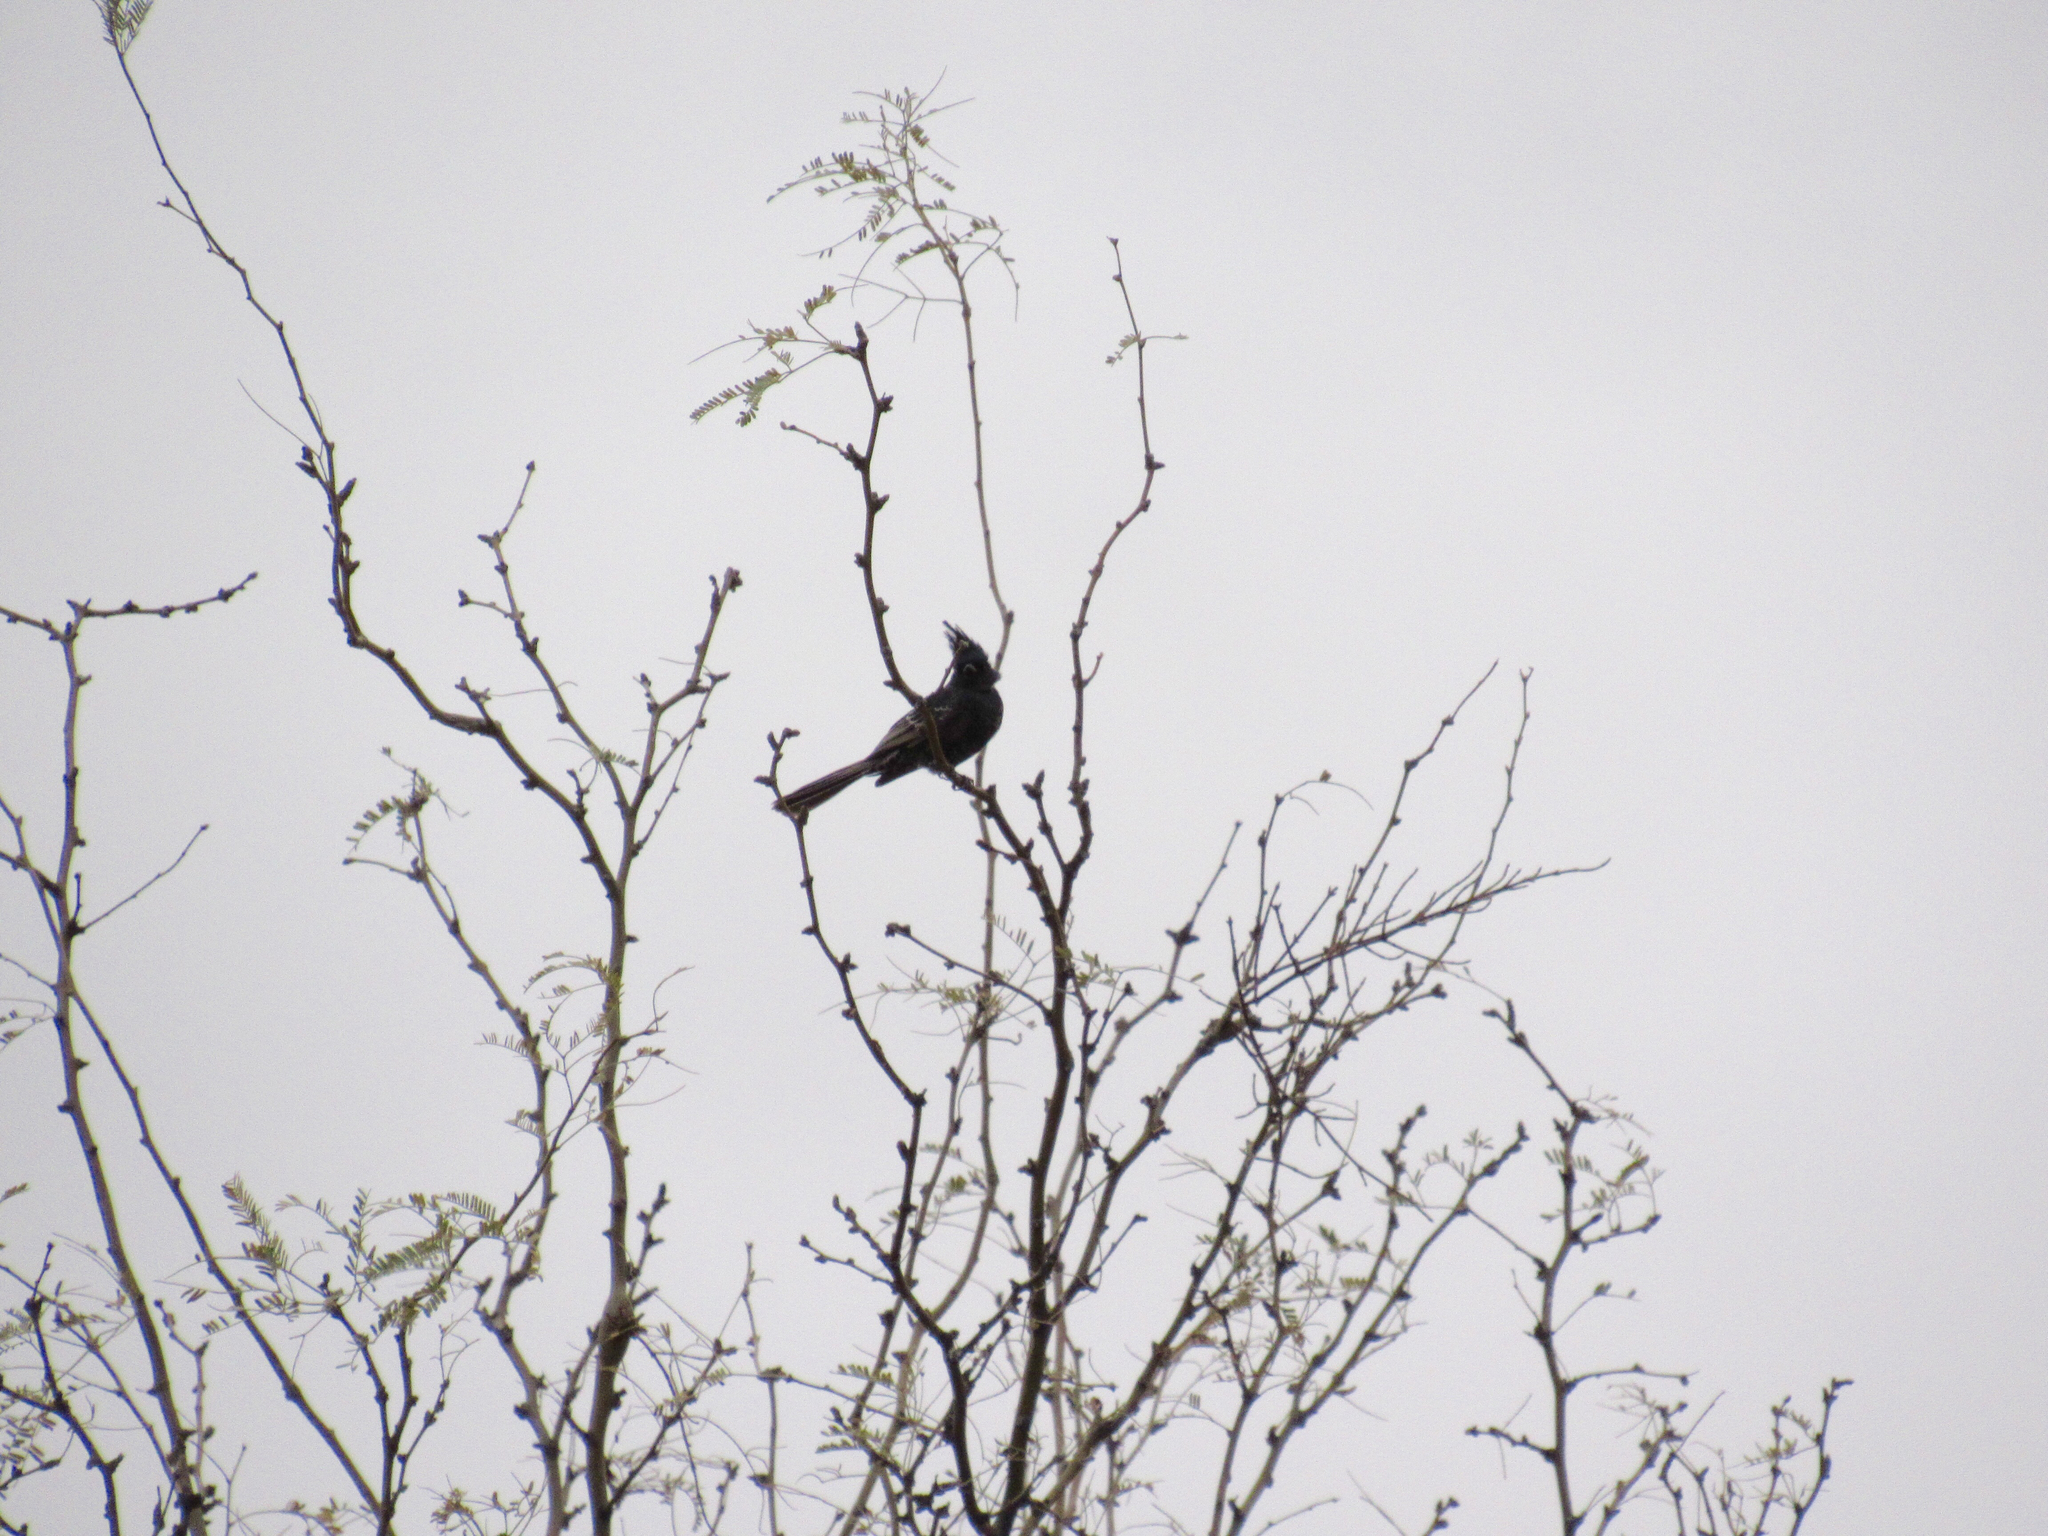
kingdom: Animalia
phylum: Chordata
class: Aves
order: Passeriformes
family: Ptilogonatidae
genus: Phainopepla
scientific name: Phainopepla nitens
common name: Phainopepla
